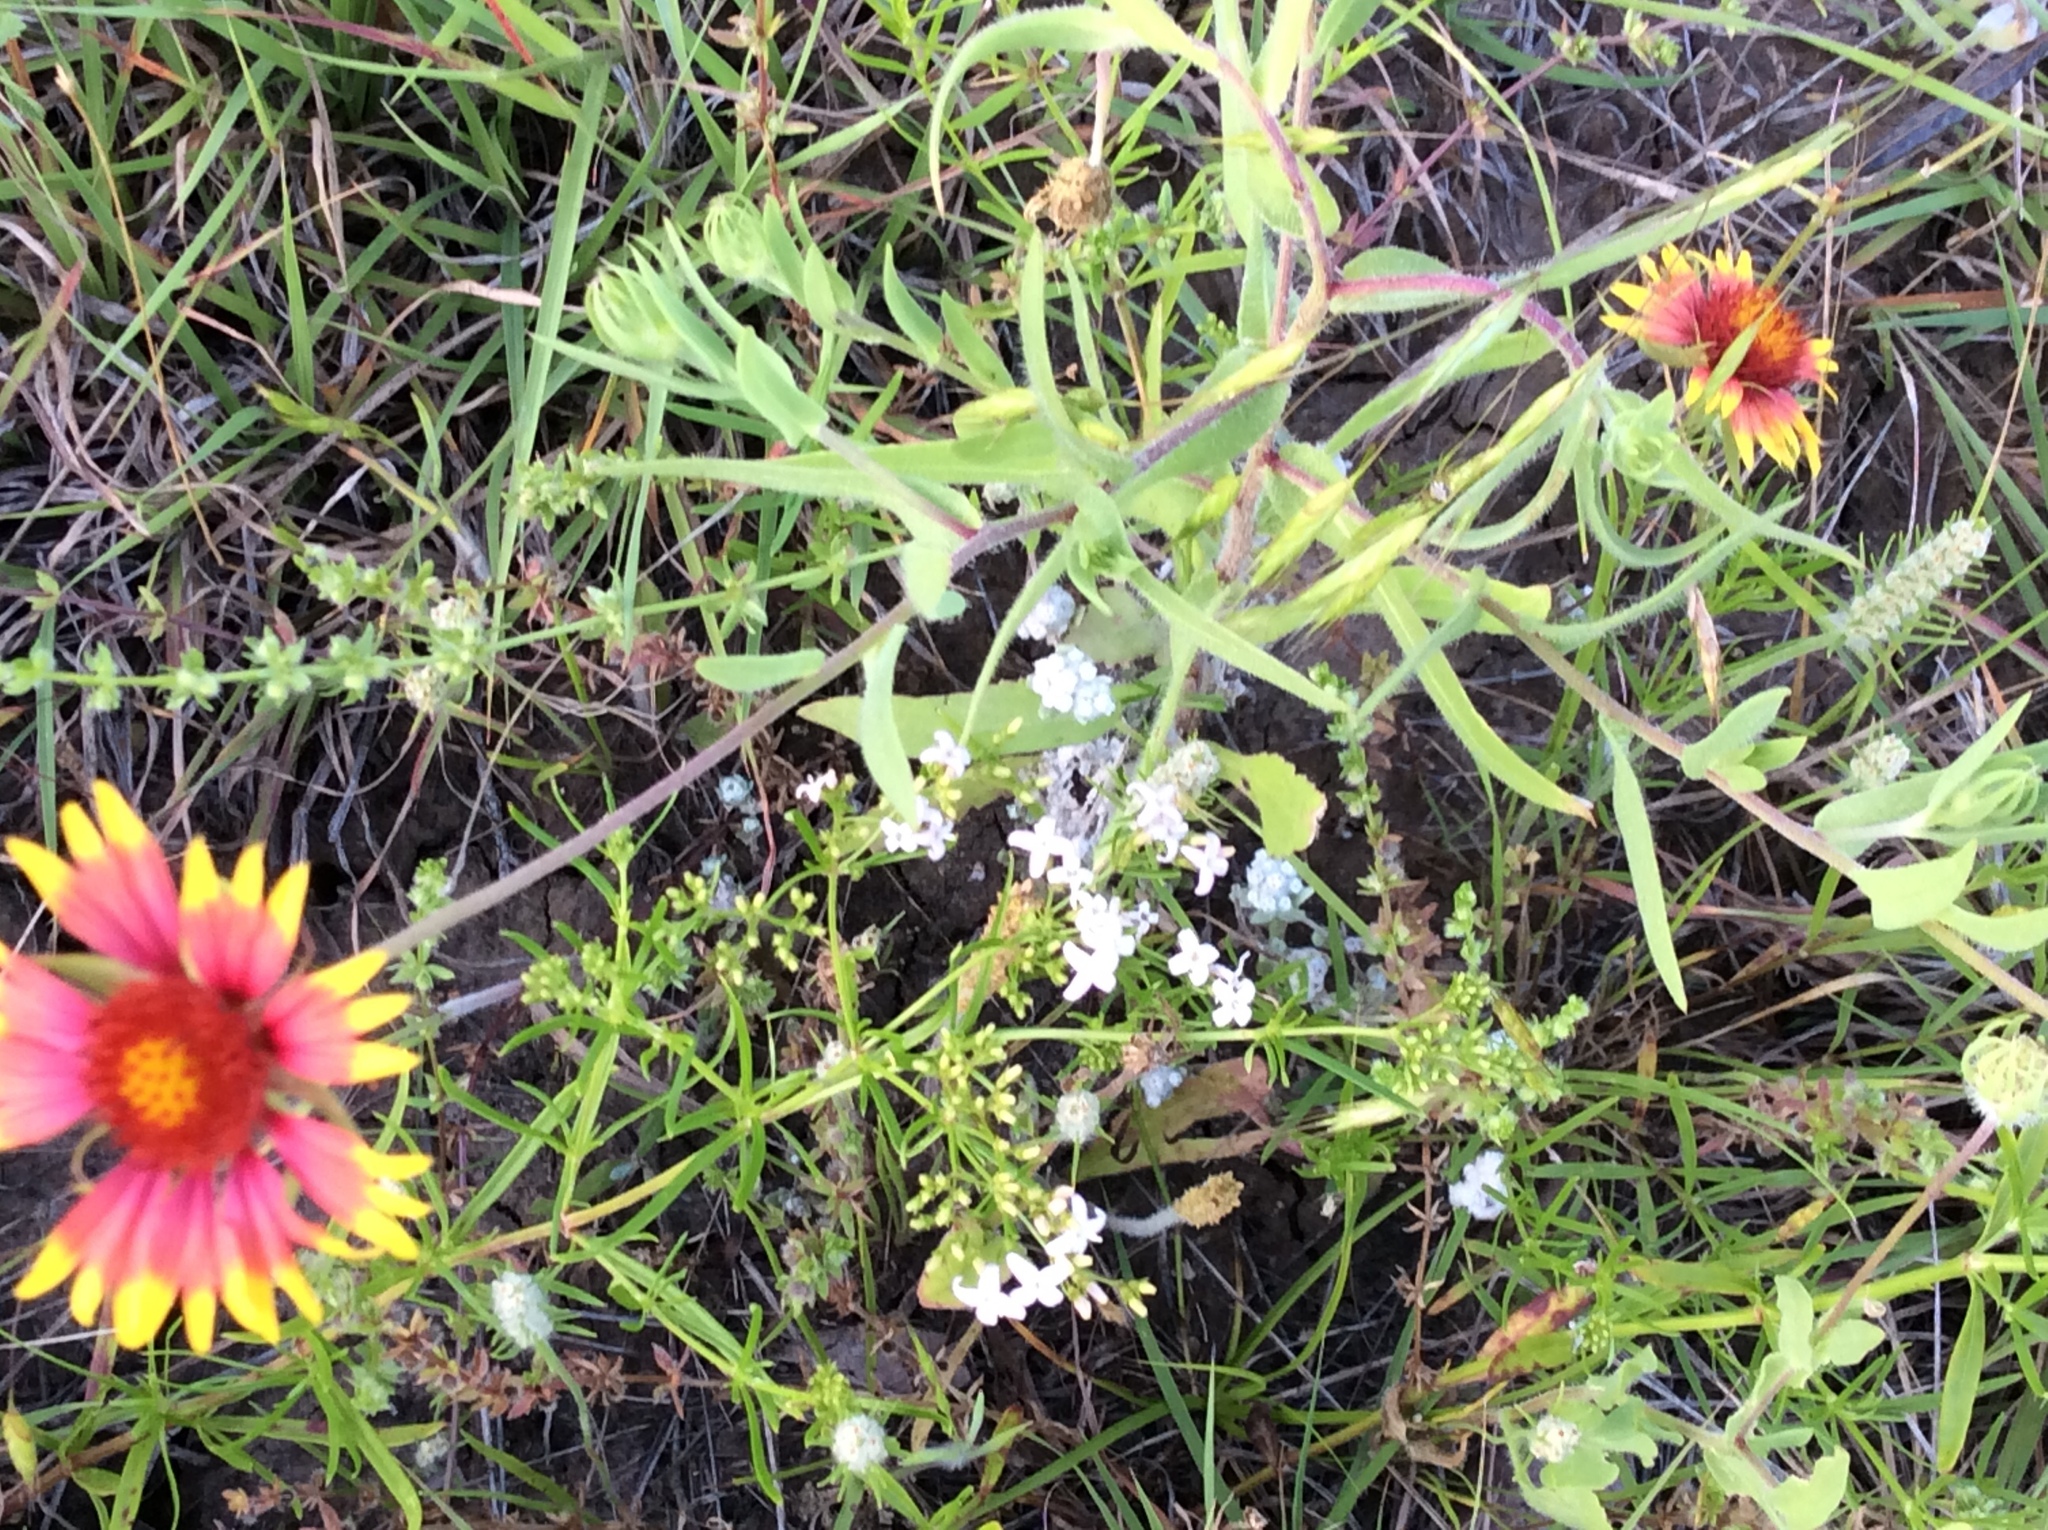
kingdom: Plantae
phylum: Tracheophyta
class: Magnoliopsida
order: Asterales
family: Asteraceae
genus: Gaillardia
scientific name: Gaillardia pulchella
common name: Firewheel
